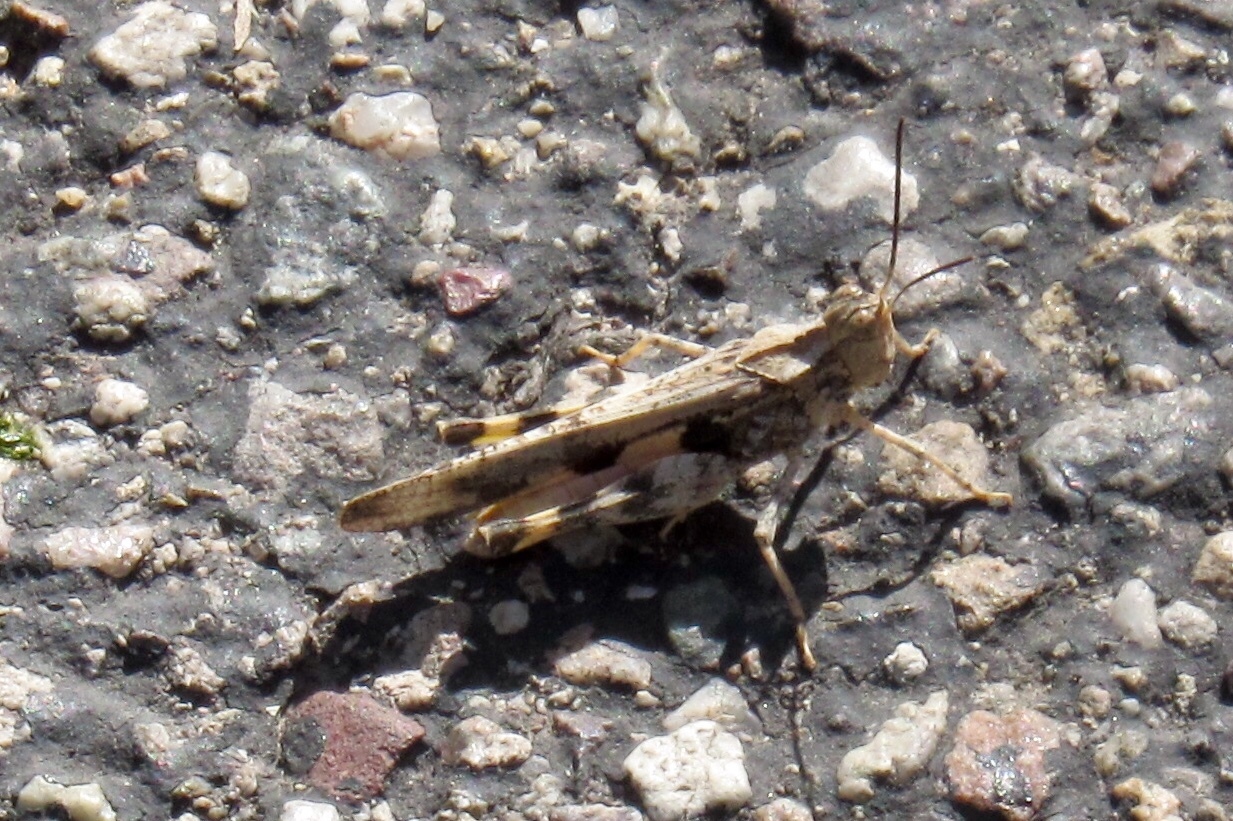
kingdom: Animalia
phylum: Arthropoda
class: Insecta
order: Orthoptera
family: Acrididae
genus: Conozoa
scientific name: Conozoa carinata
